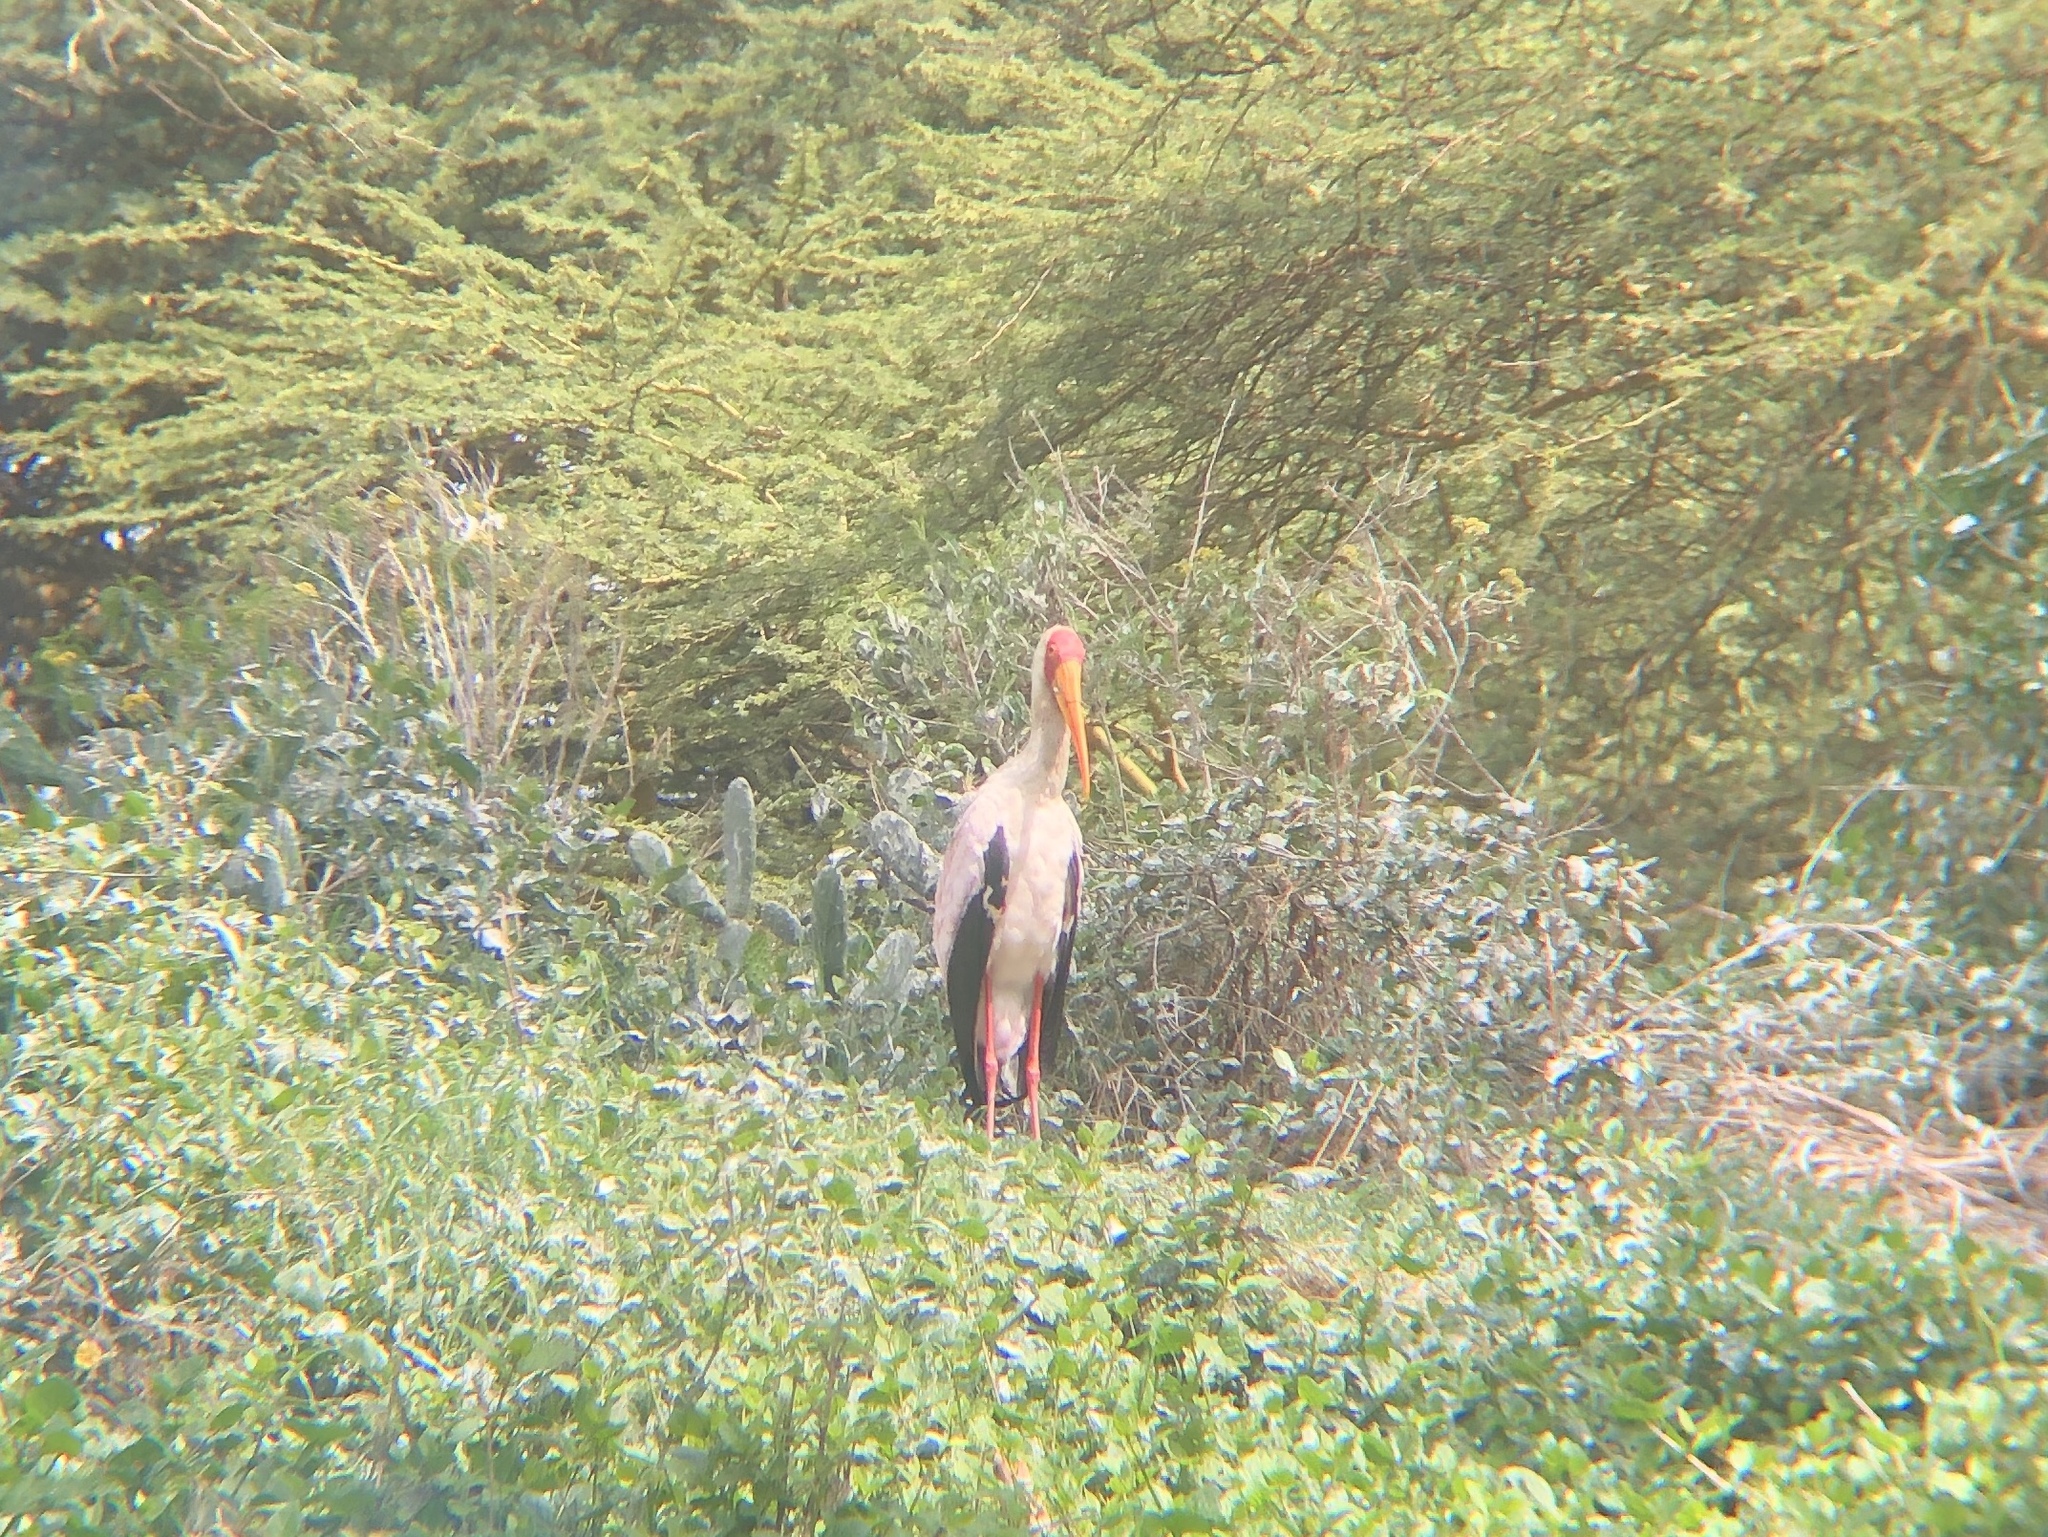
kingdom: Animalia
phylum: Chordata
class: Aves
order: Ciconiiformes
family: Ciconiidae
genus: Mycteria
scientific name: Mycteria ibis
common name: Yellow-billed stork
